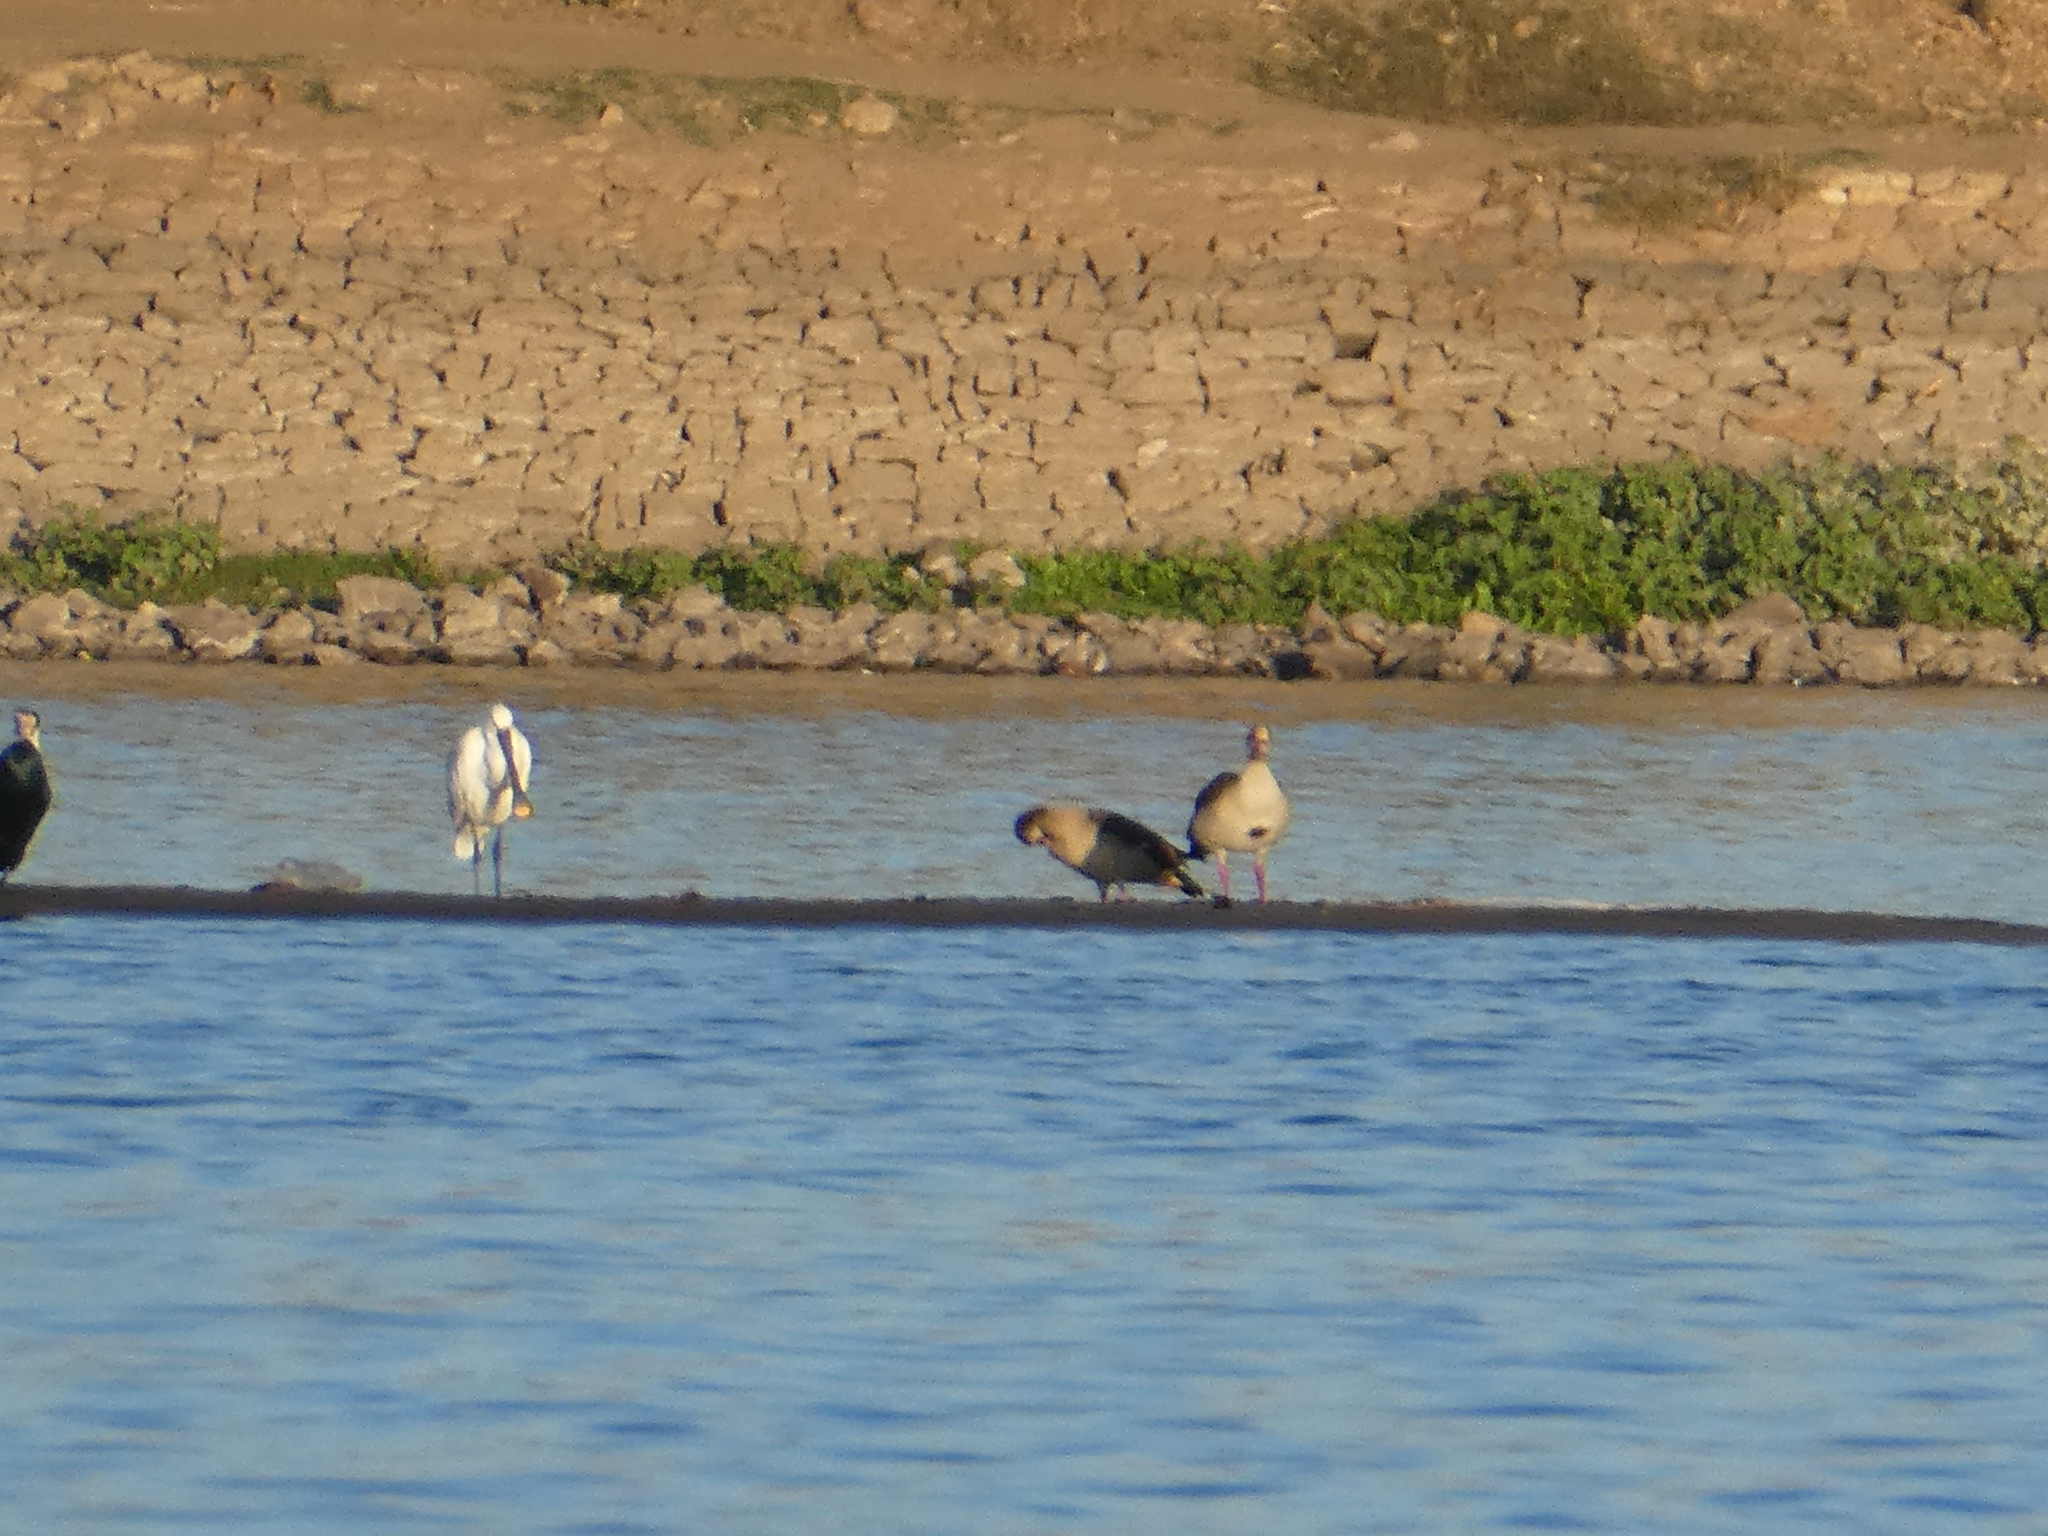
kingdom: Animalia
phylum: Chordata
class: Aves
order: Pelecaniformes
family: Threskiornithidae
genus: Platalea
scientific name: Platalea leucorodia
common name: Eurasian spoonbill
